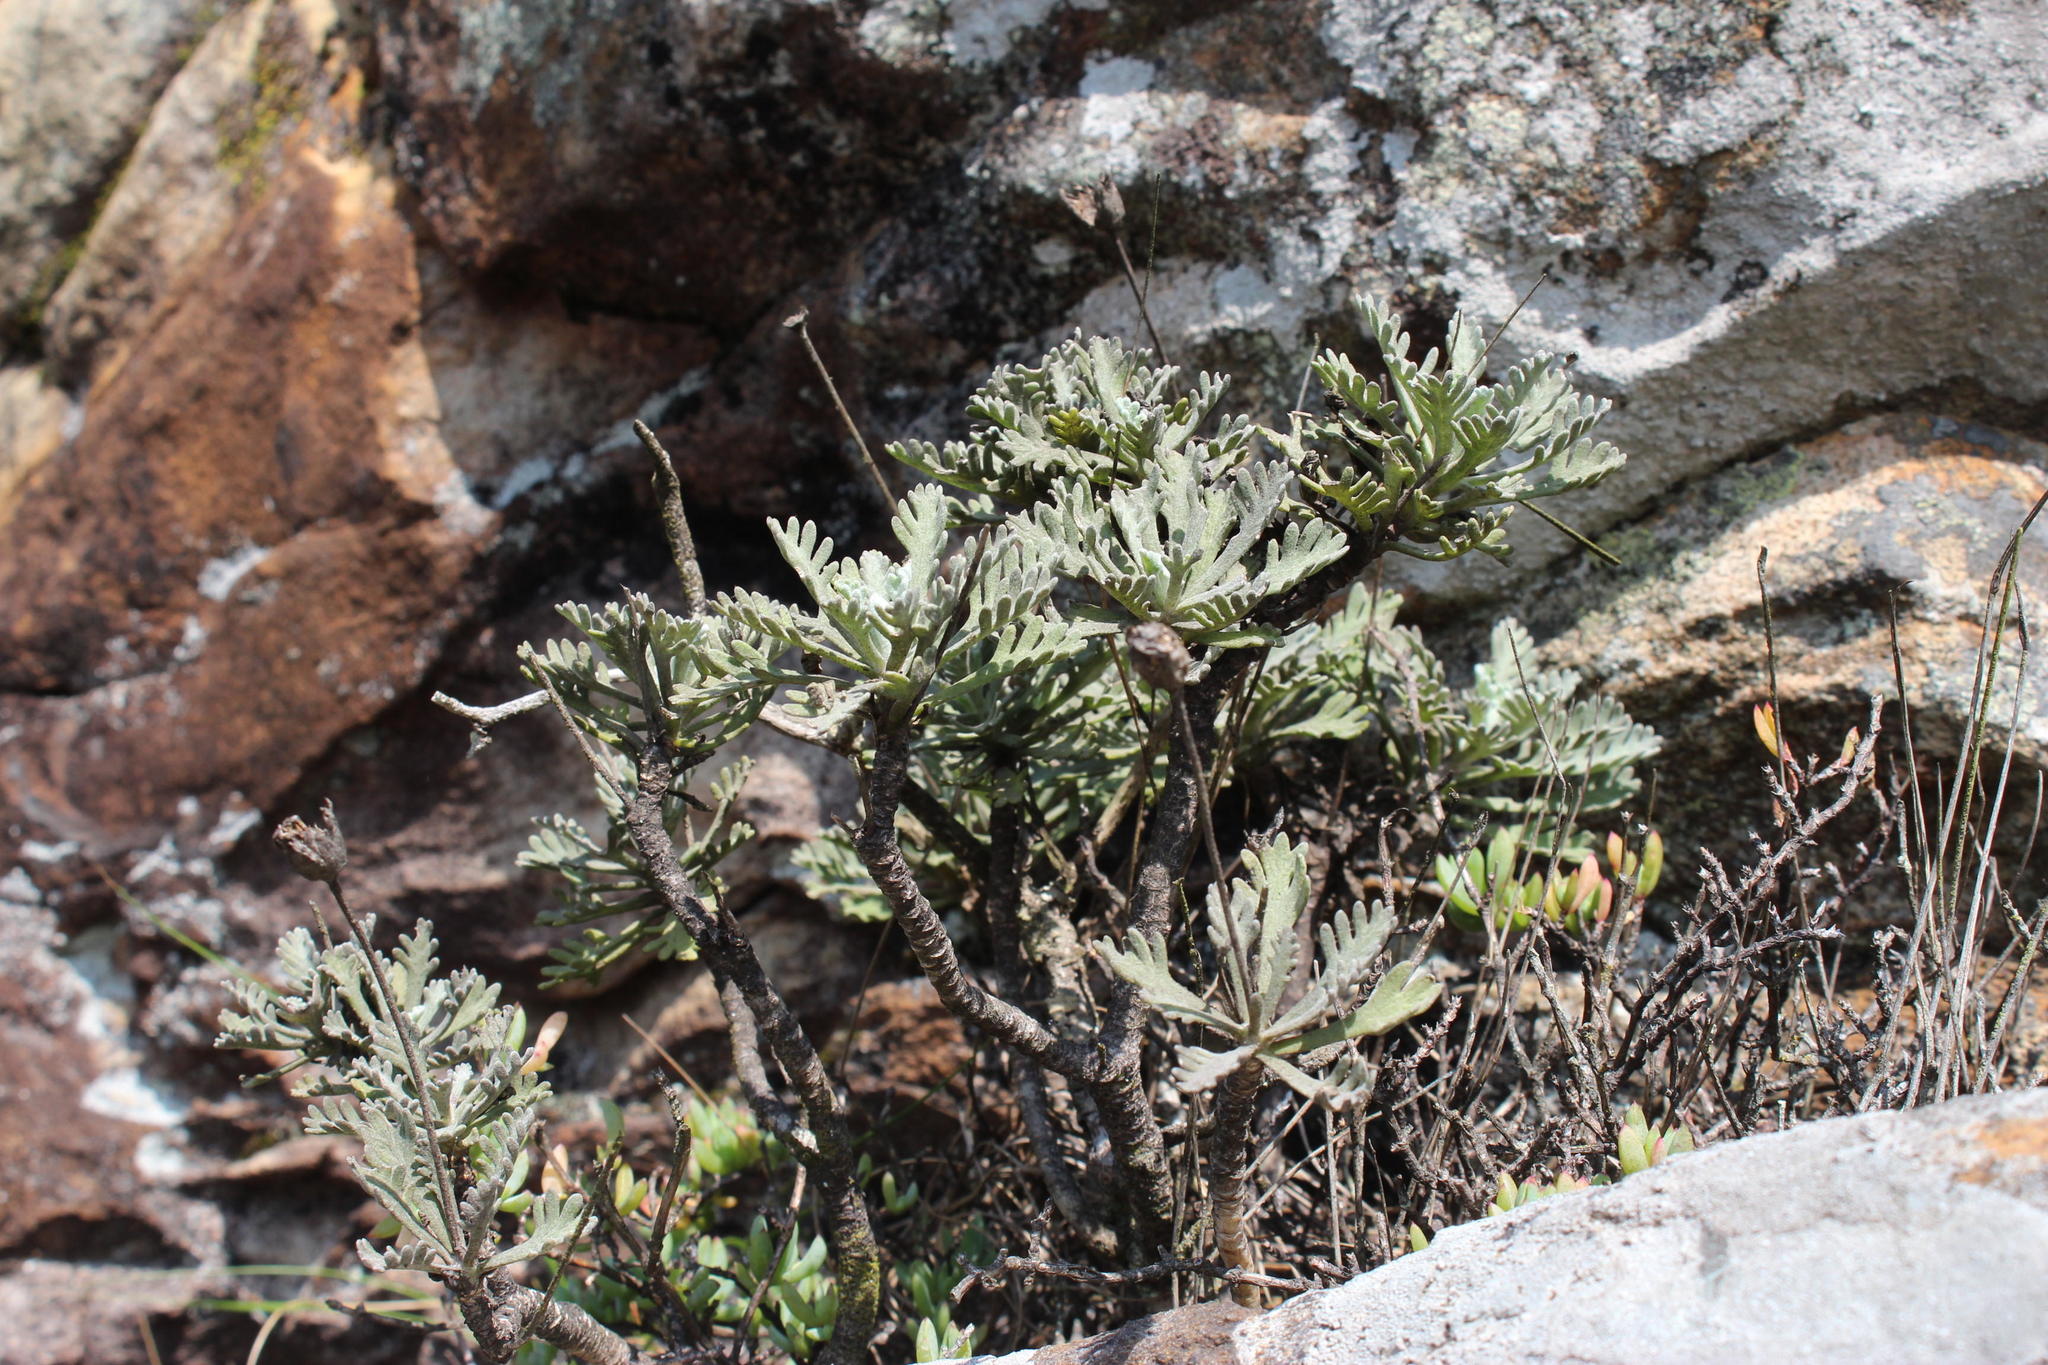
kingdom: Plantae
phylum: Tracheophyta
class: Magnoliopsida
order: Asterales
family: Asteraceae
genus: Euryops
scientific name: Euryops pectinatus
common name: Gray-leaf euryops
